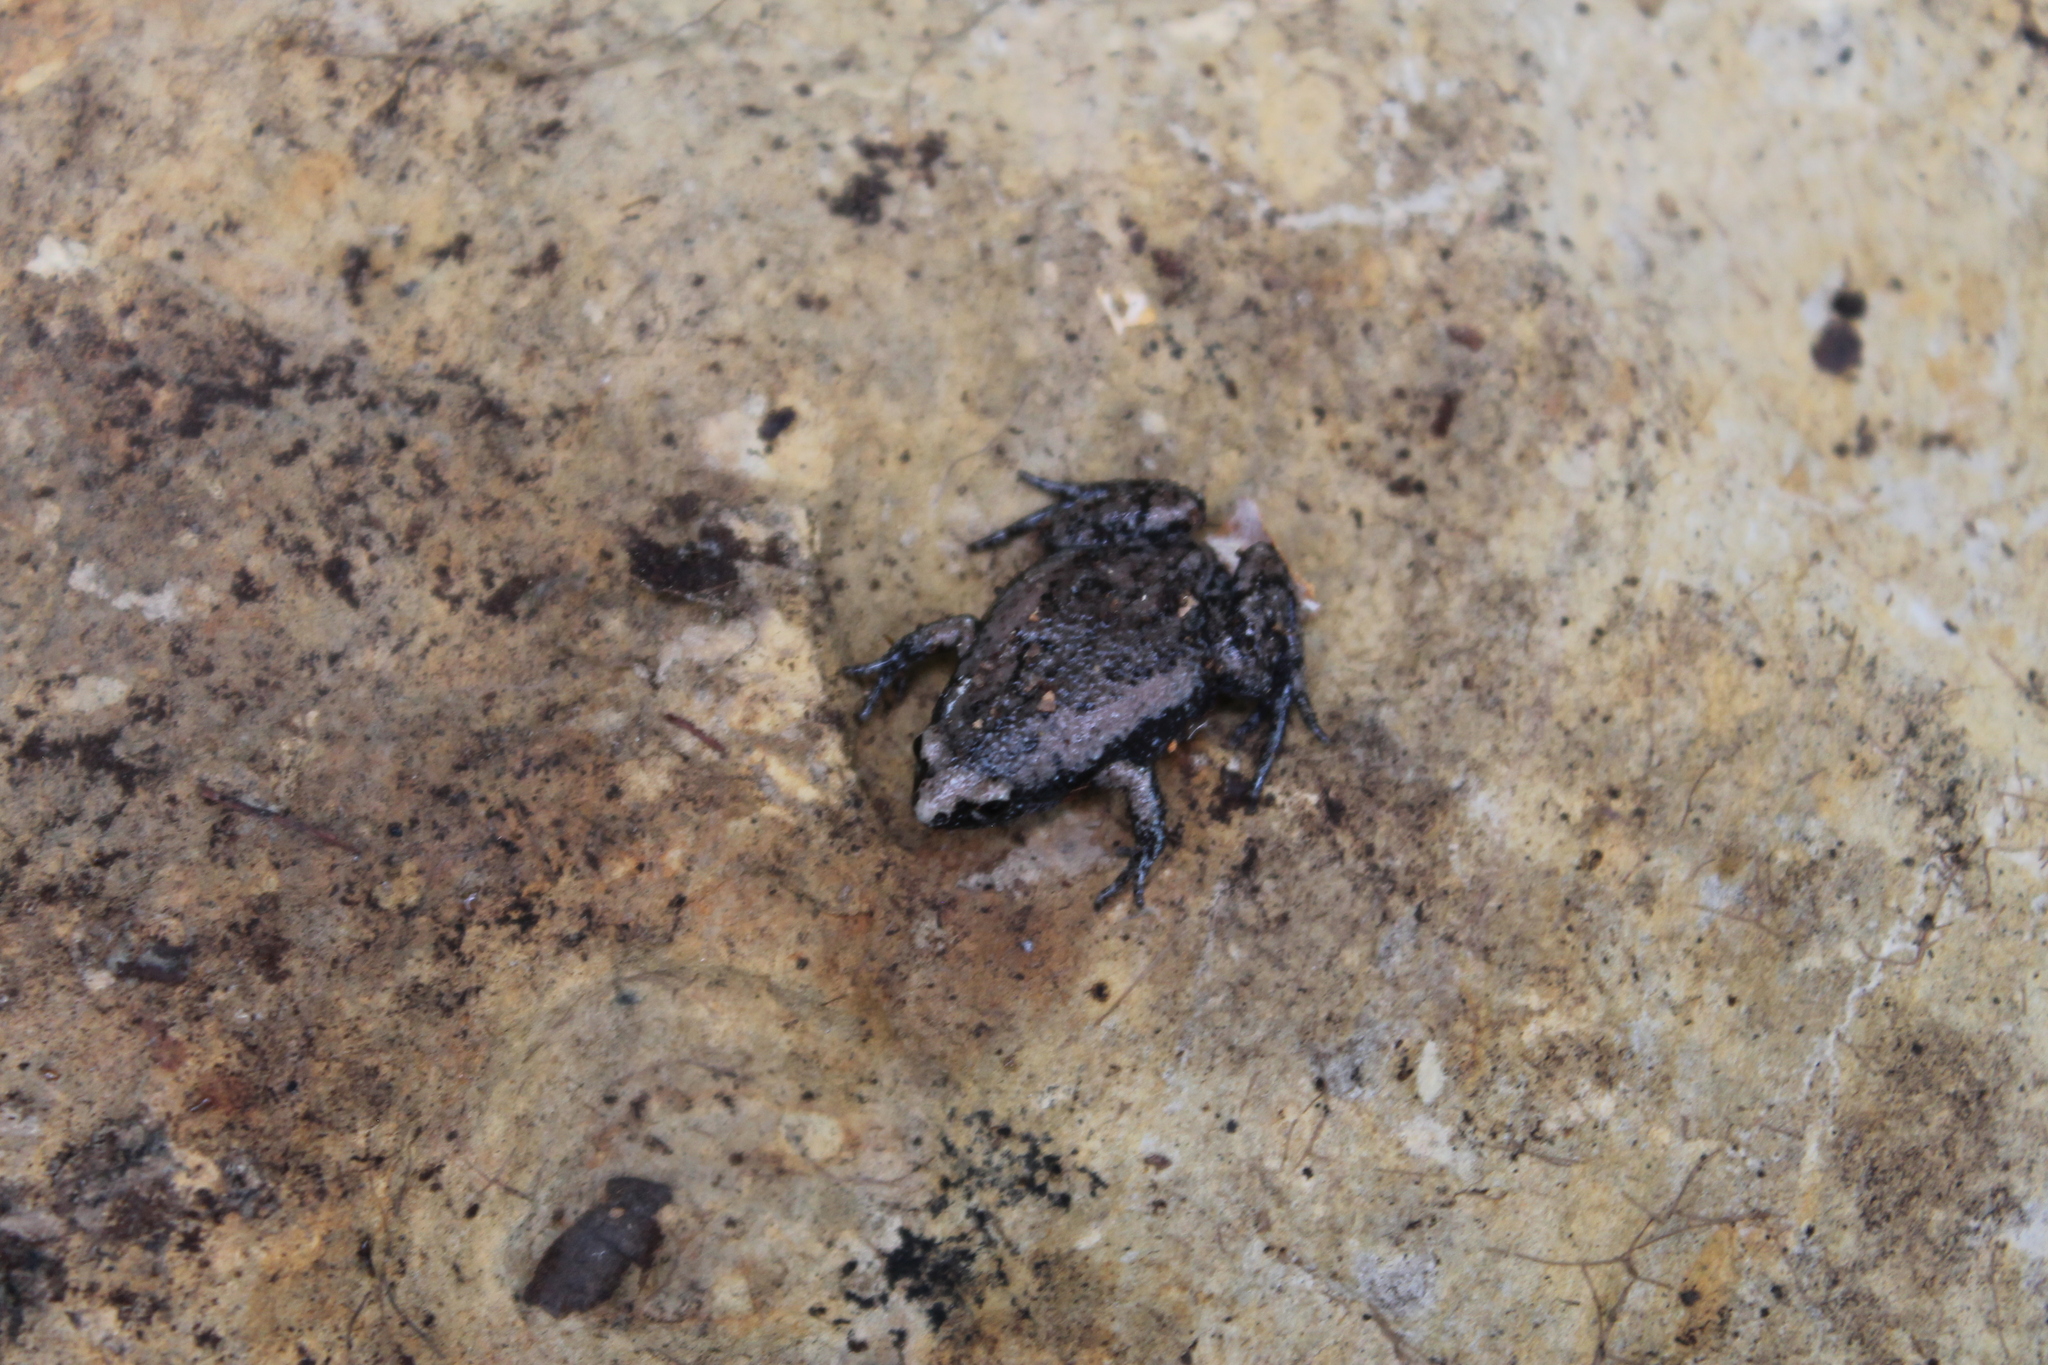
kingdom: Animalia
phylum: Chordata
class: Amphibia
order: Anura
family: Microhylidae
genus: Gastrophryne
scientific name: Gastrophryne carolinensis
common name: Eastern narrowmouth toad
